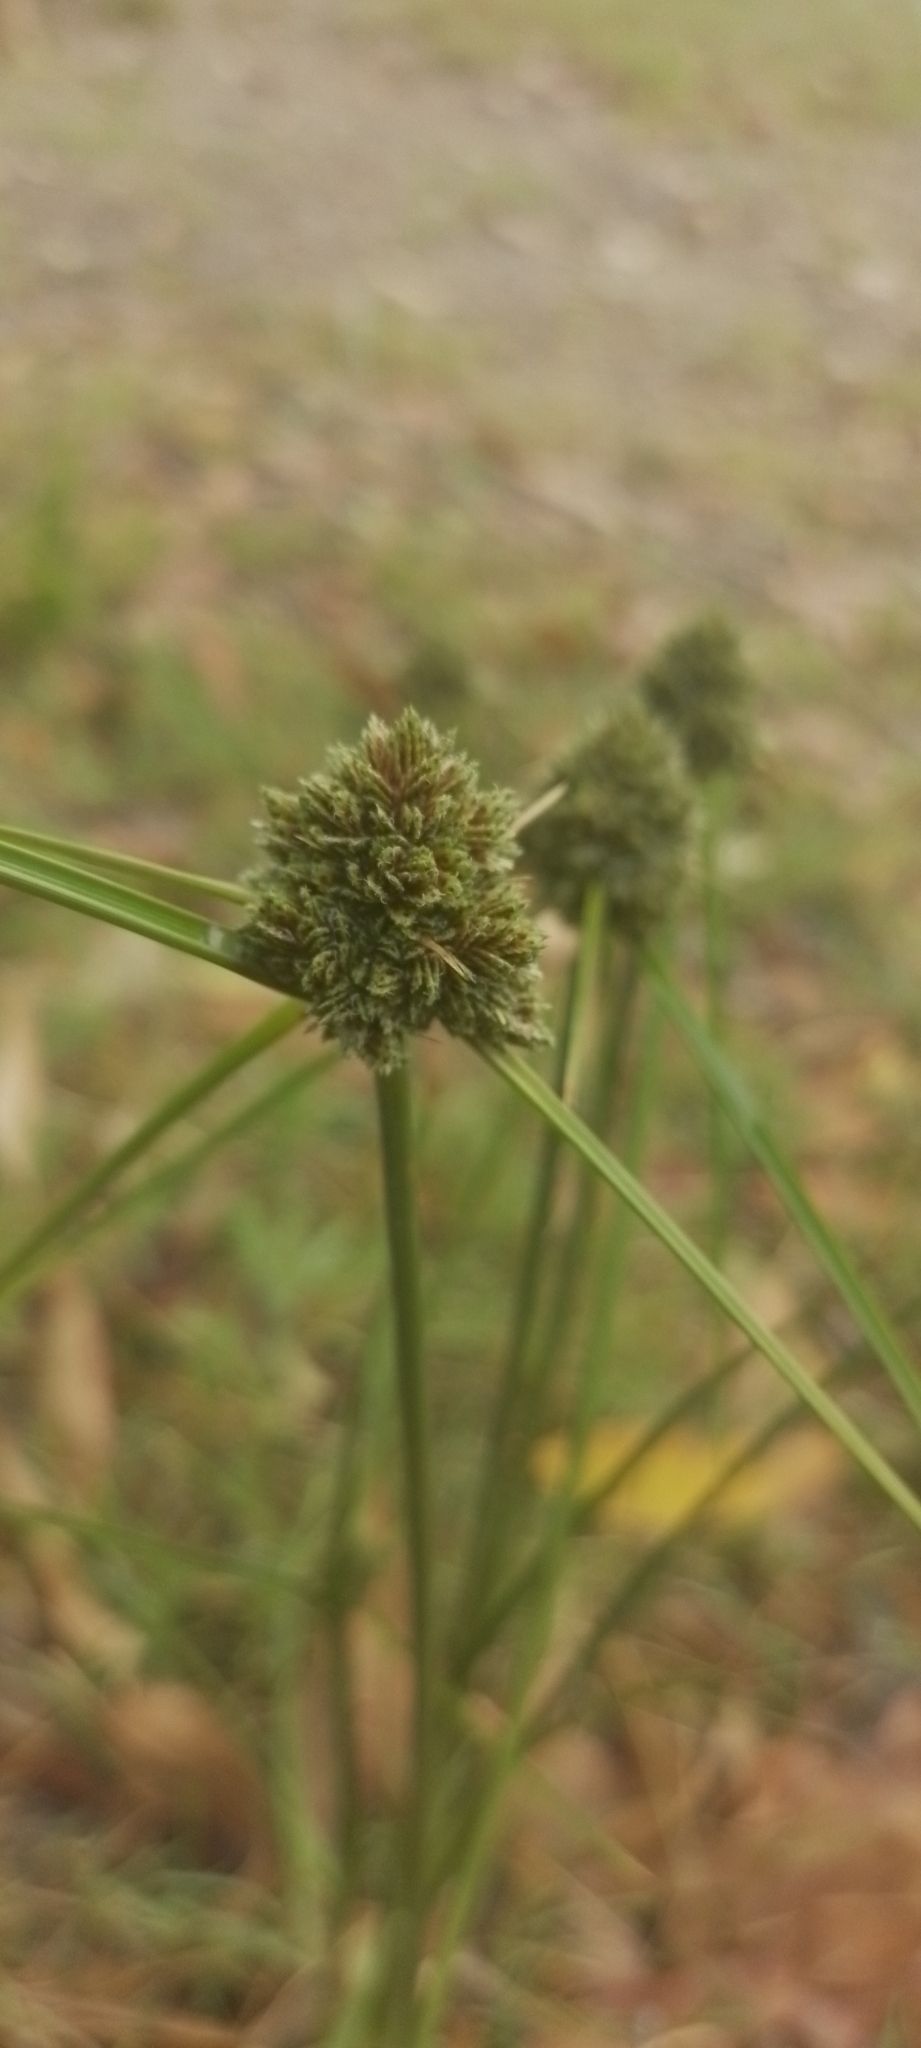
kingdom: Plantae
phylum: Tracheophyta
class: Liliopsida
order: Poales
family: Cyperaceae
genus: Cyperus
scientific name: Cyperus reflexus
